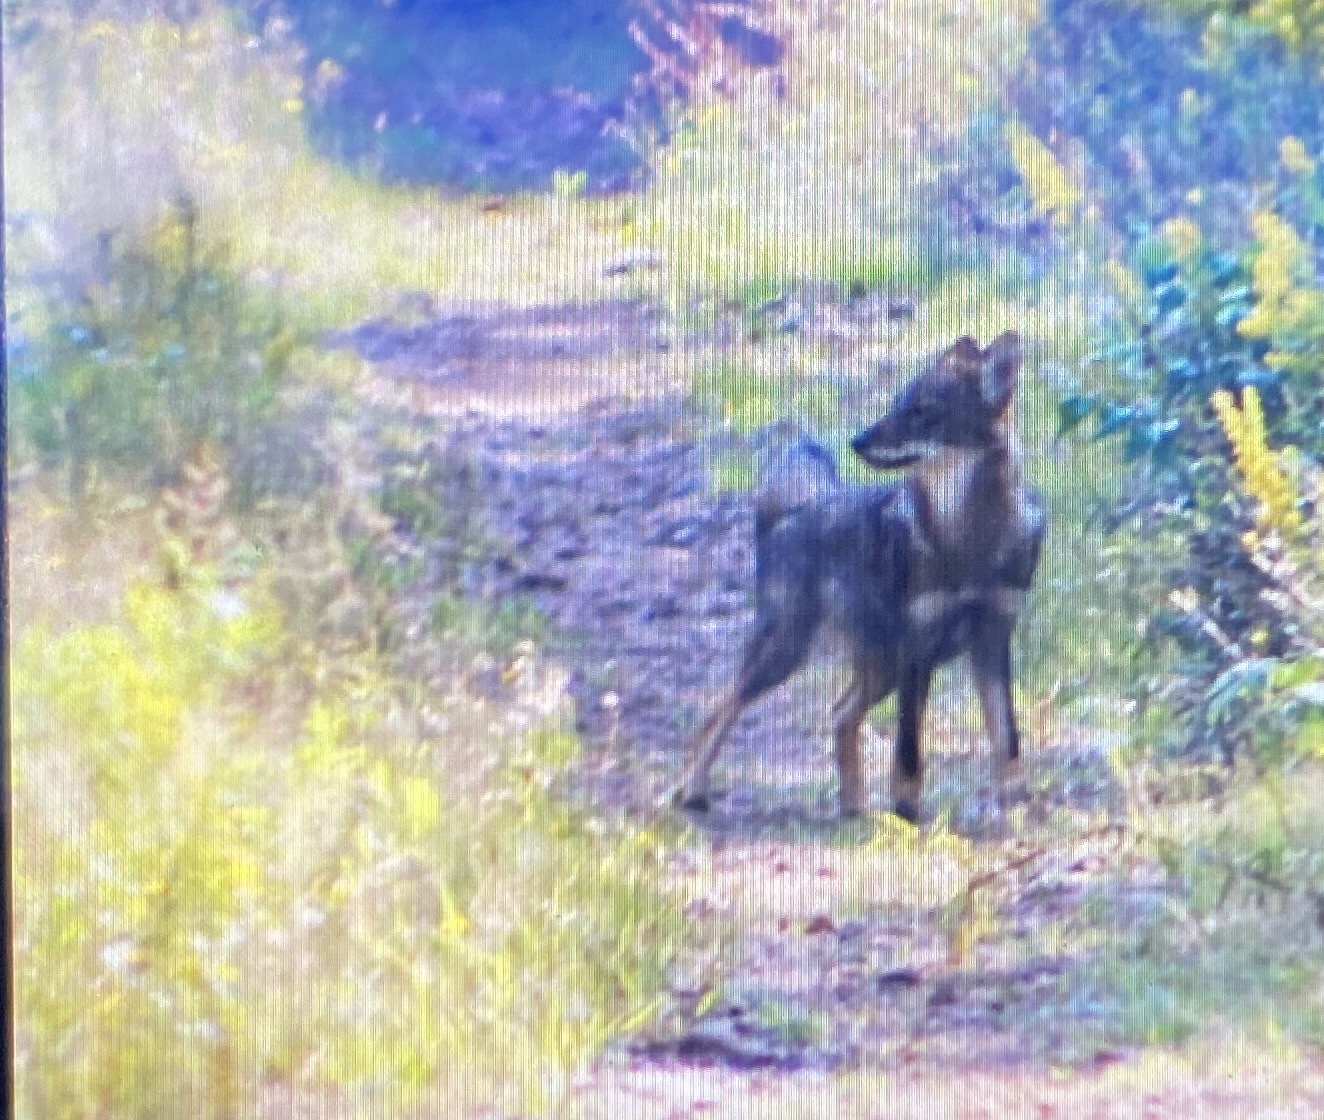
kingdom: Animalia
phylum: Chordata
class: Mammalia
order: Carnivora
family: Canidae
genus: Canis
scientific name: Canis latrans
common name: Coyote
